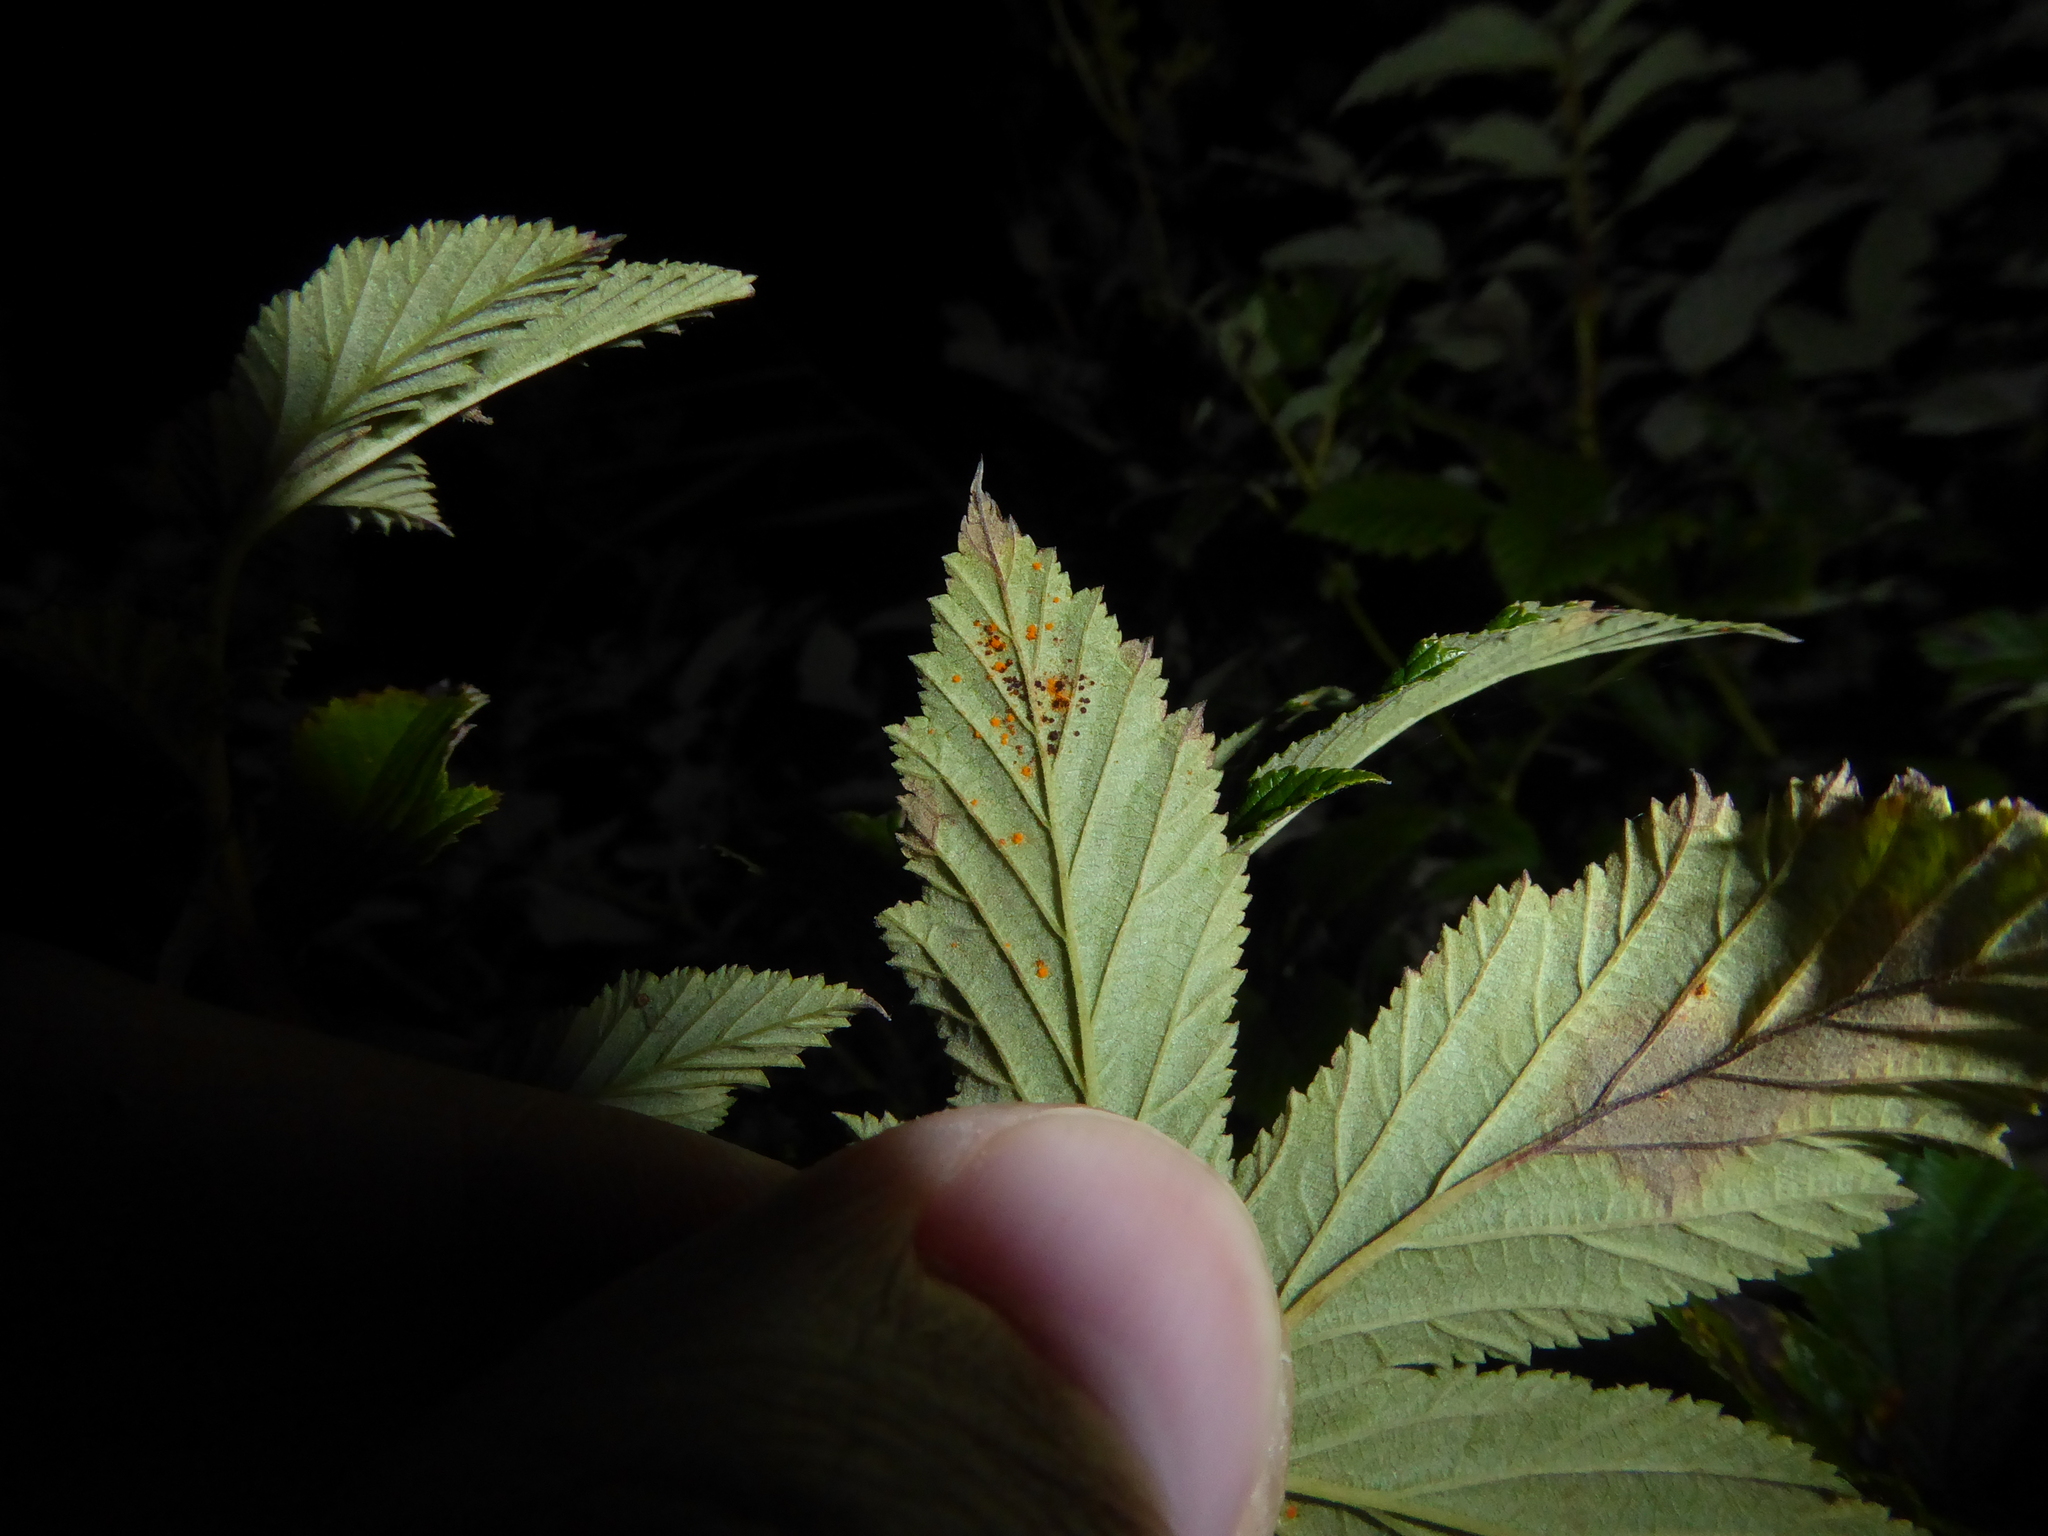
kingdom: Fungi
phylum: Basidiomycota
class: Pucciniomycetes
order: Pucciniales
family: Raveneliaceae
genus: Triphragmium
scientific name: Triphragmium ulmariae
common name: Meadowsweet rust
